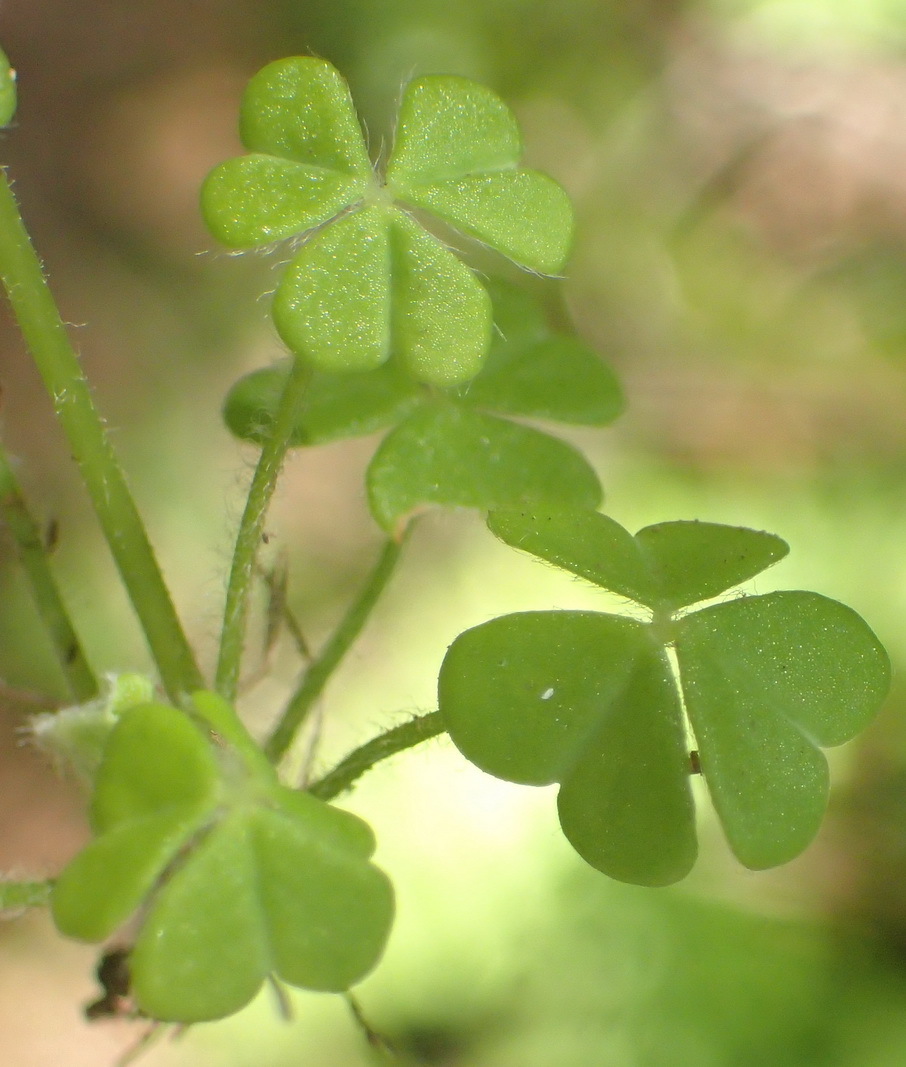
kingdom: Plantae
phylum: Tracheophyta
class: Magnoliopsida
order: Oxalidales
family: Oxalidaceae
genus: Oxalis
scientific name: Oxalis psilopoda
